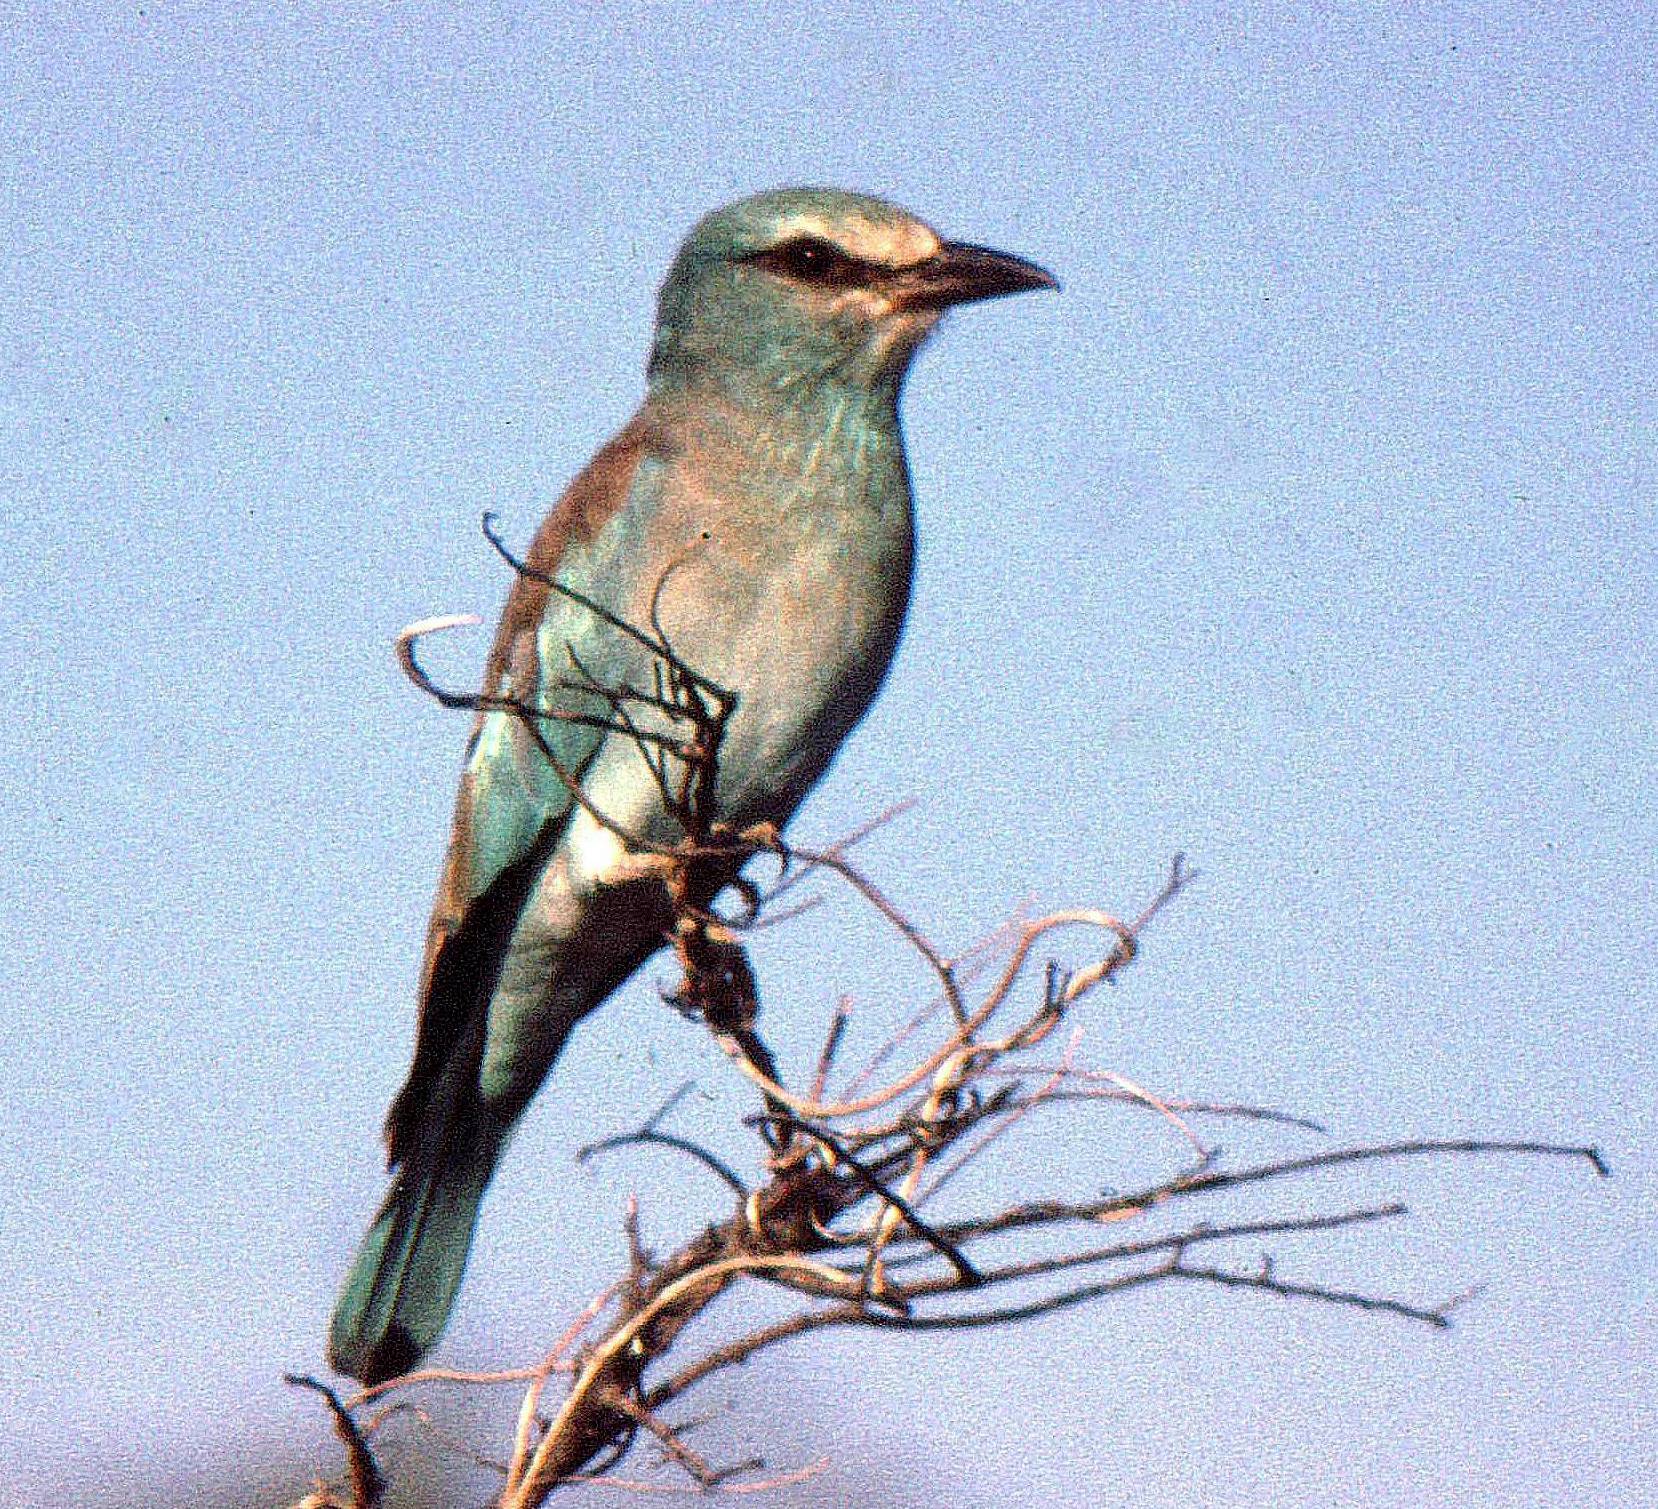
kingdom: Animalia
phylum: Chordata
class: Aves
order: Coraciiformes
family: Coraciidae
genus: Coracias
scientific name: Coracias garrulus
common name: European roller
